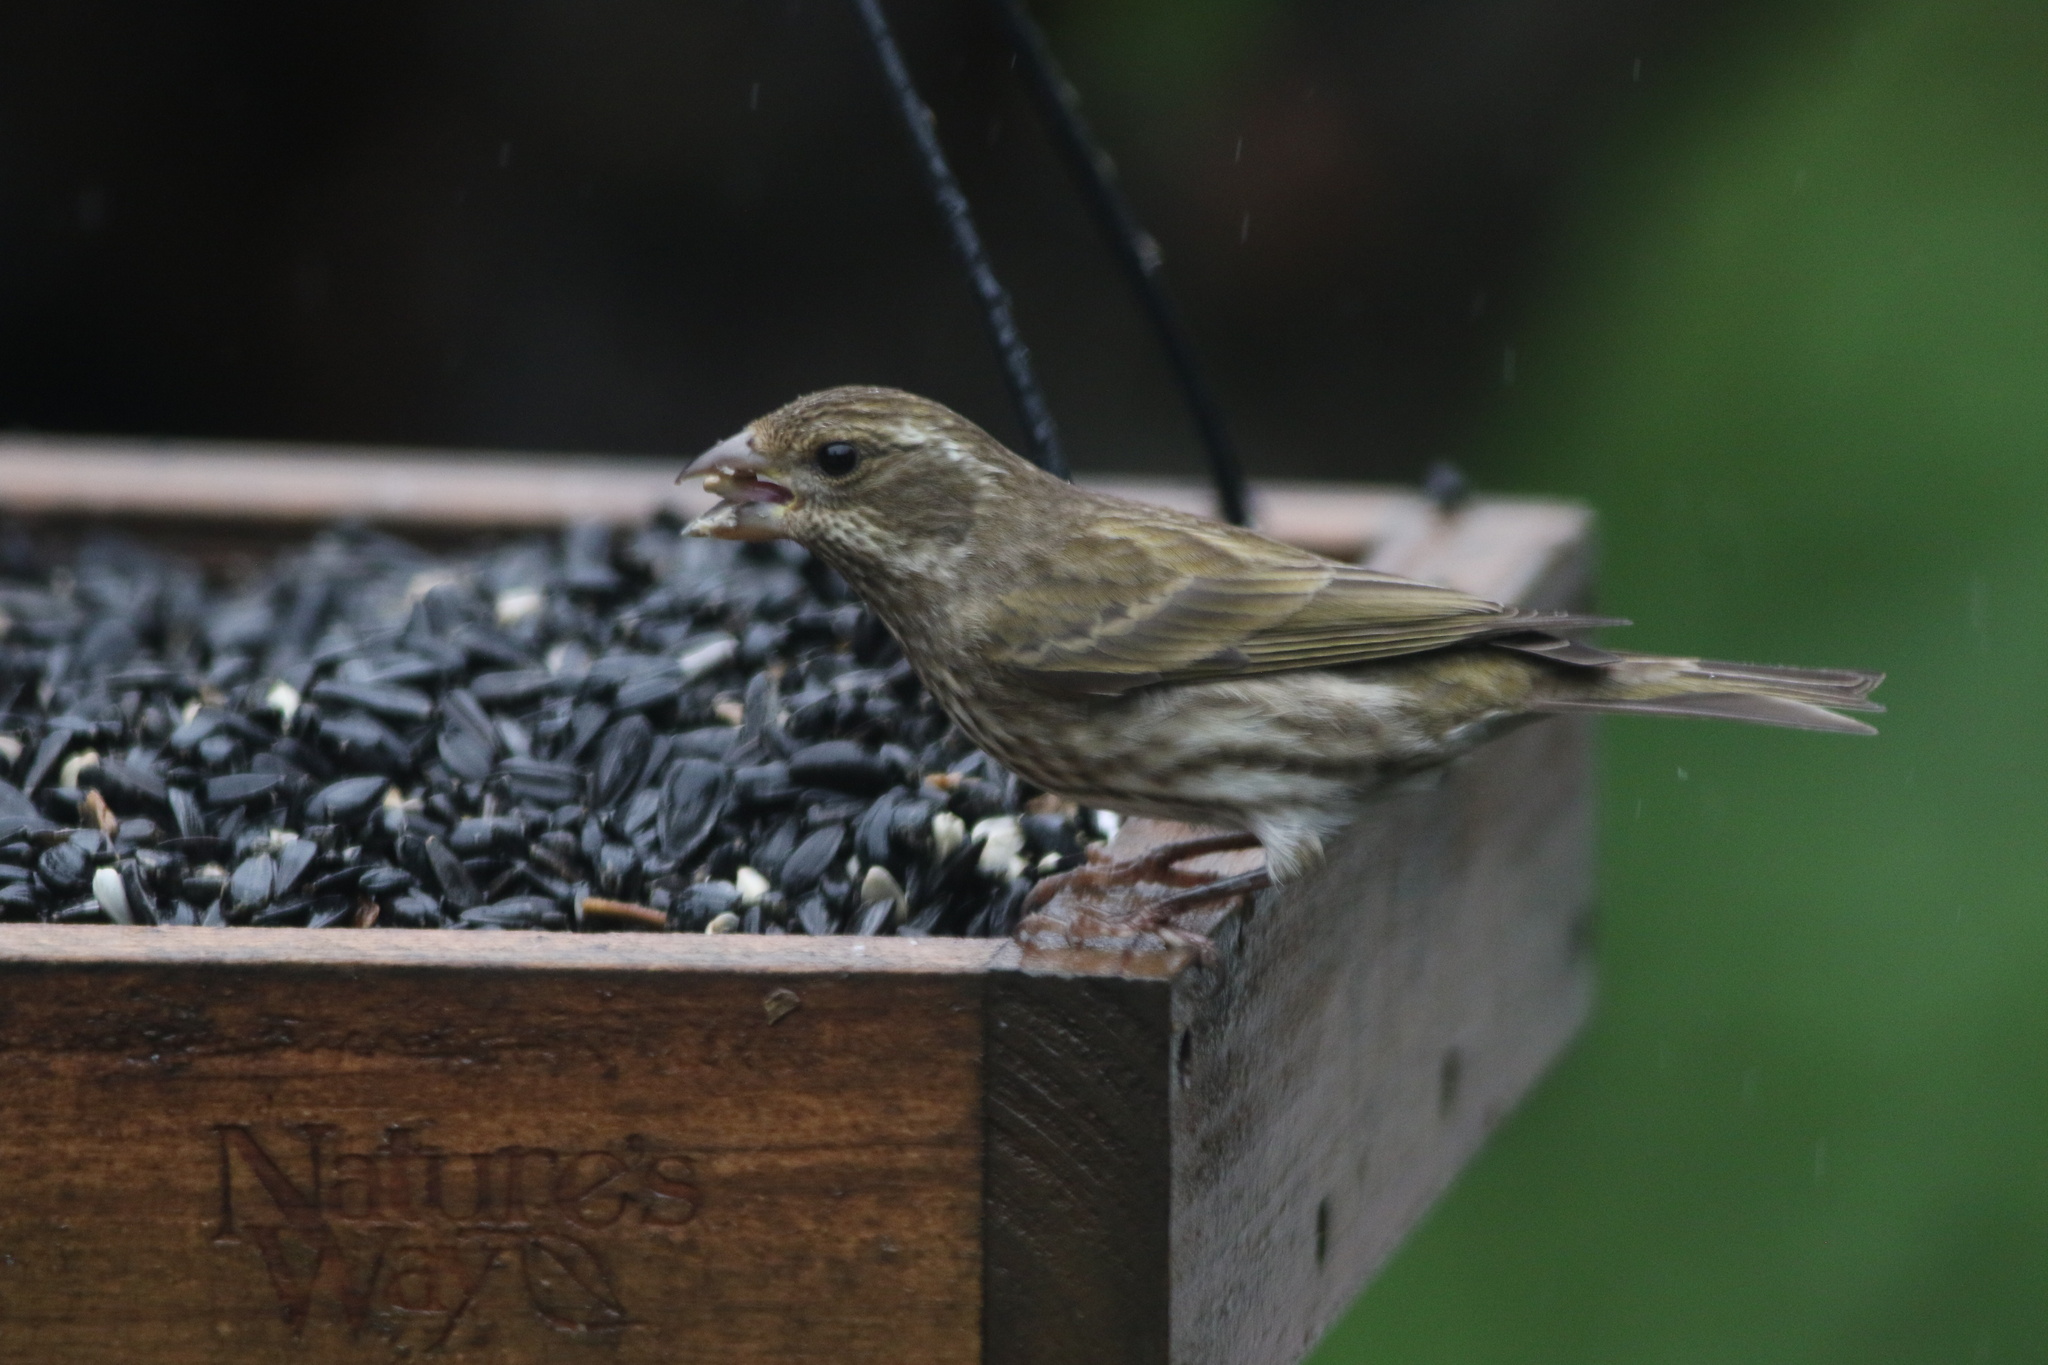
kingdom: Animalia
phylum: Chordata
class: Aves
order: Passeriformes
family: Fringillidae
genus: Haemorhous
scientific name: Haemorhous purpureus
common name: Purple finch
